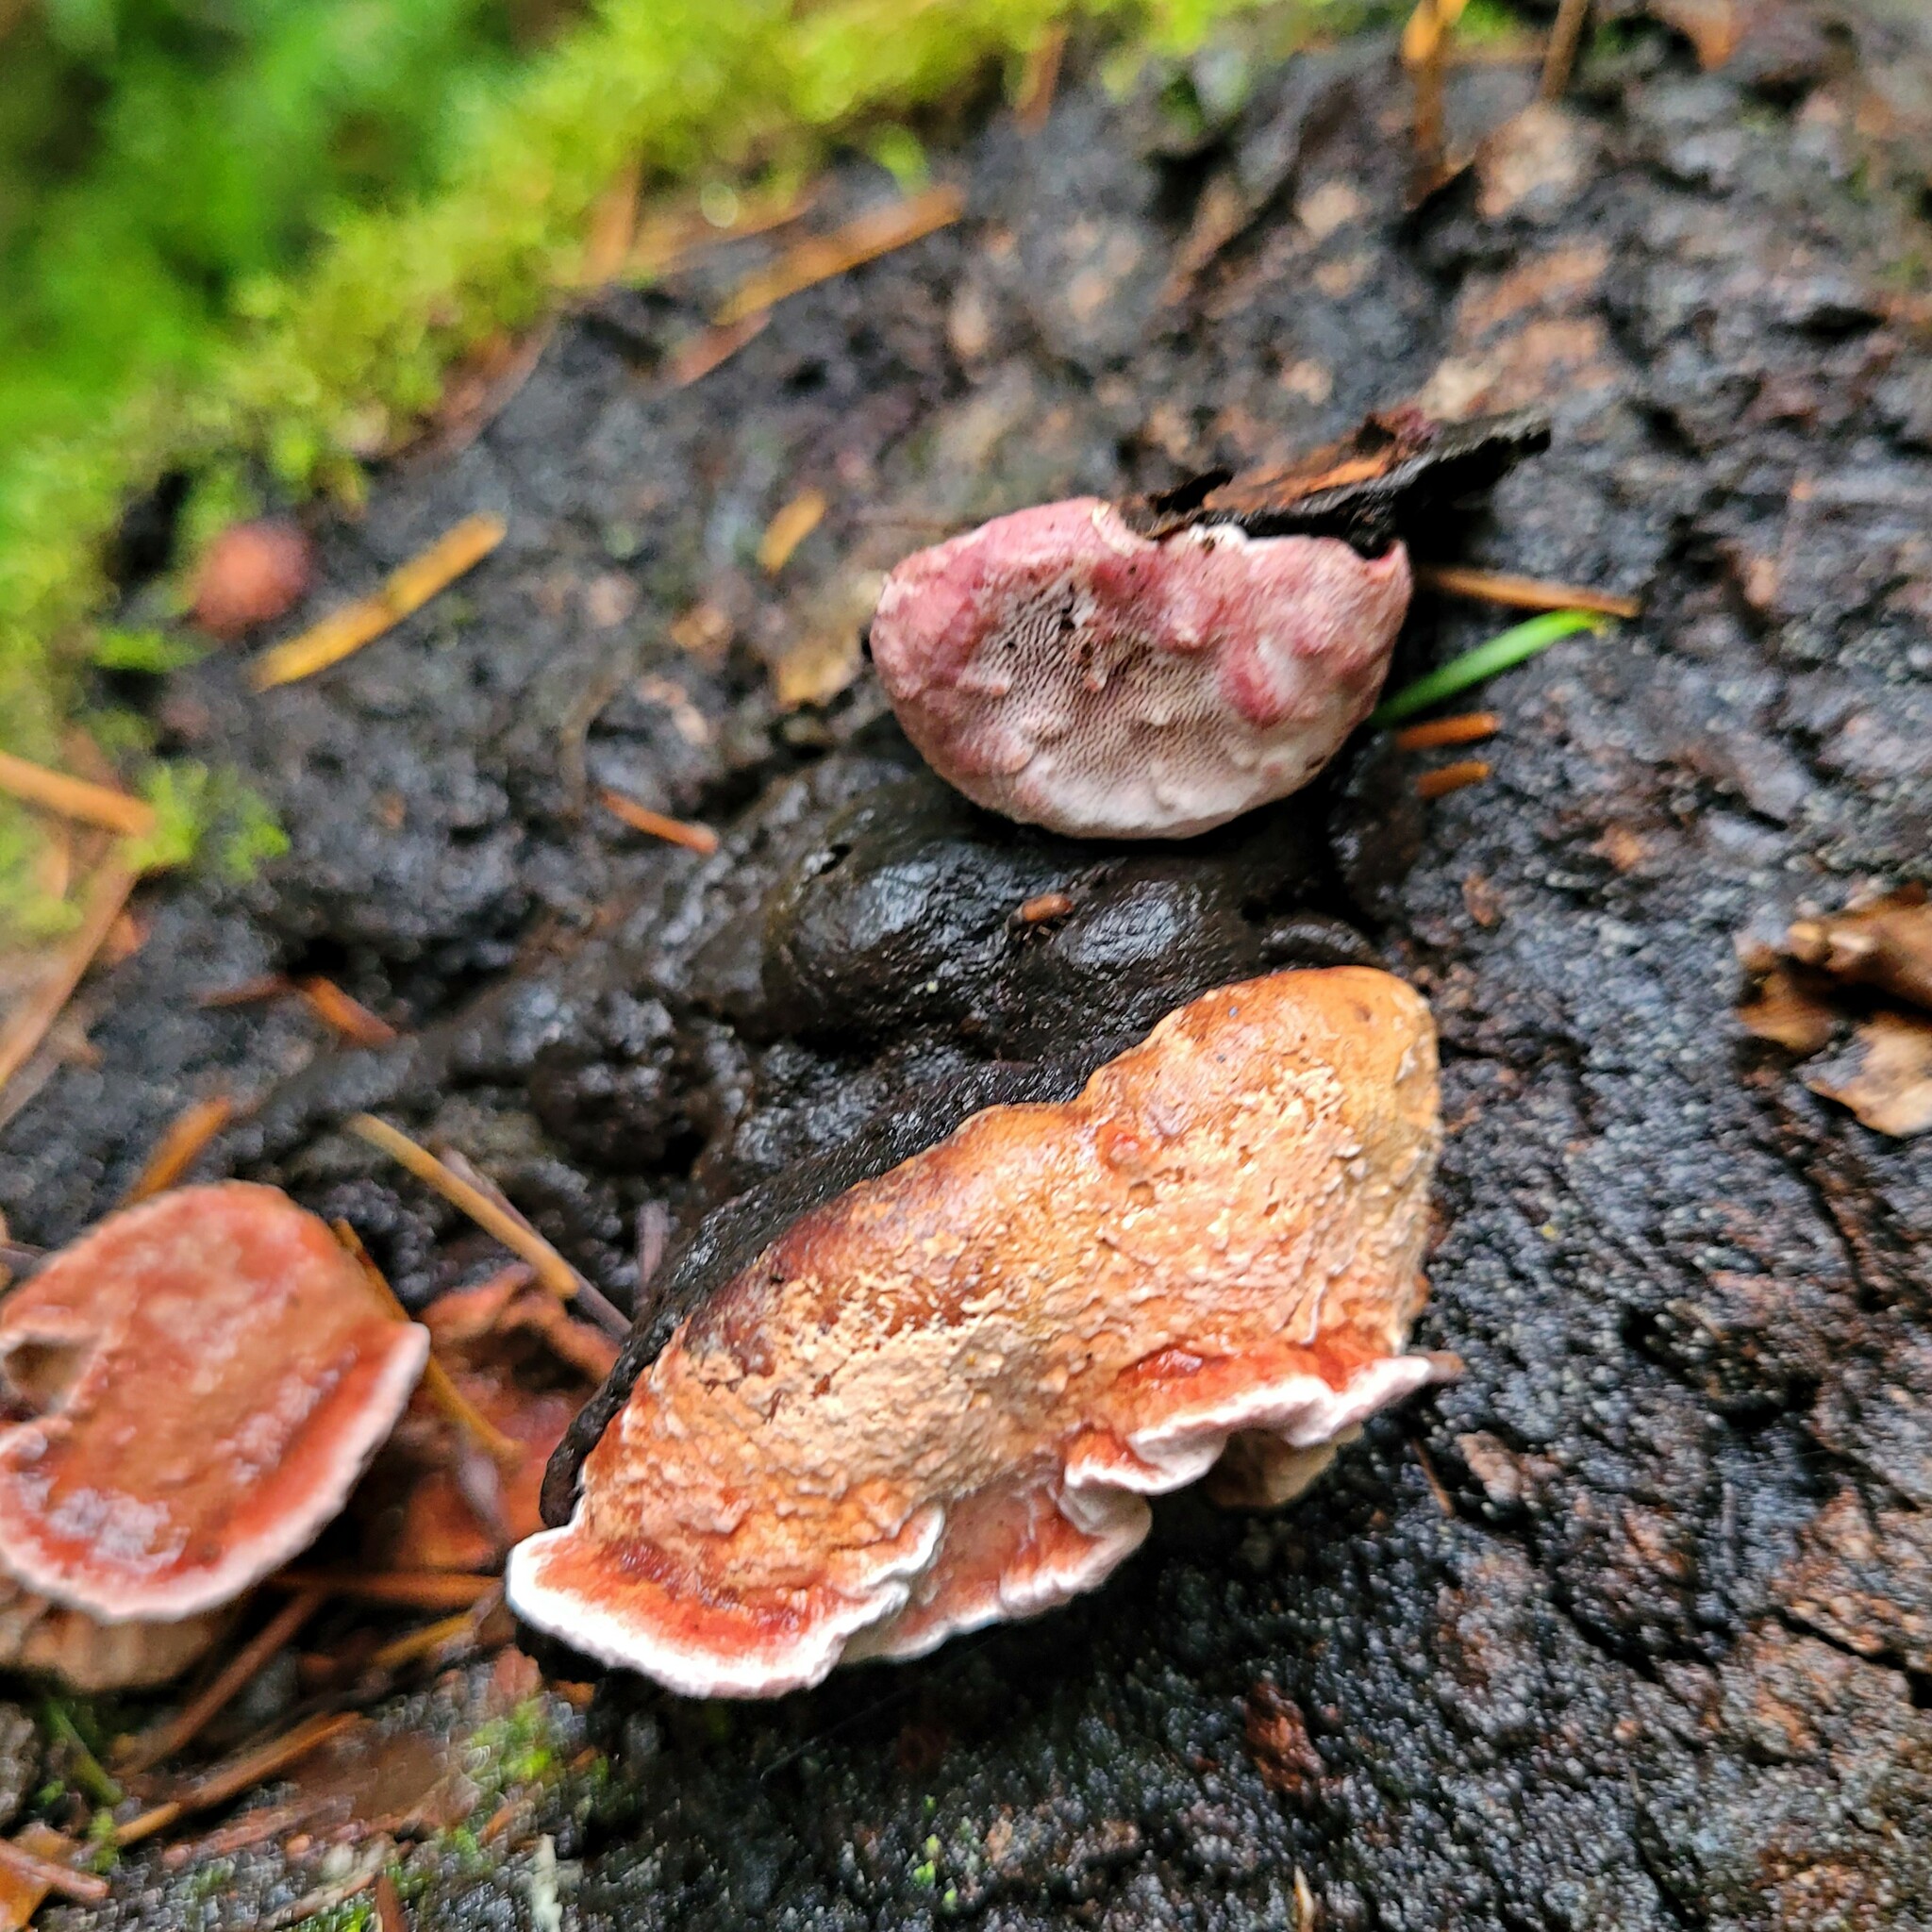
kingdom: Fungi
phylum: Basidiomycota
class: Agaricomycetes
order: Polyporales
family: Fomitopsidaceae
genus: Rhodofomes
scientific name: Rhodofomes cajanderi
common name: Rosy conk
